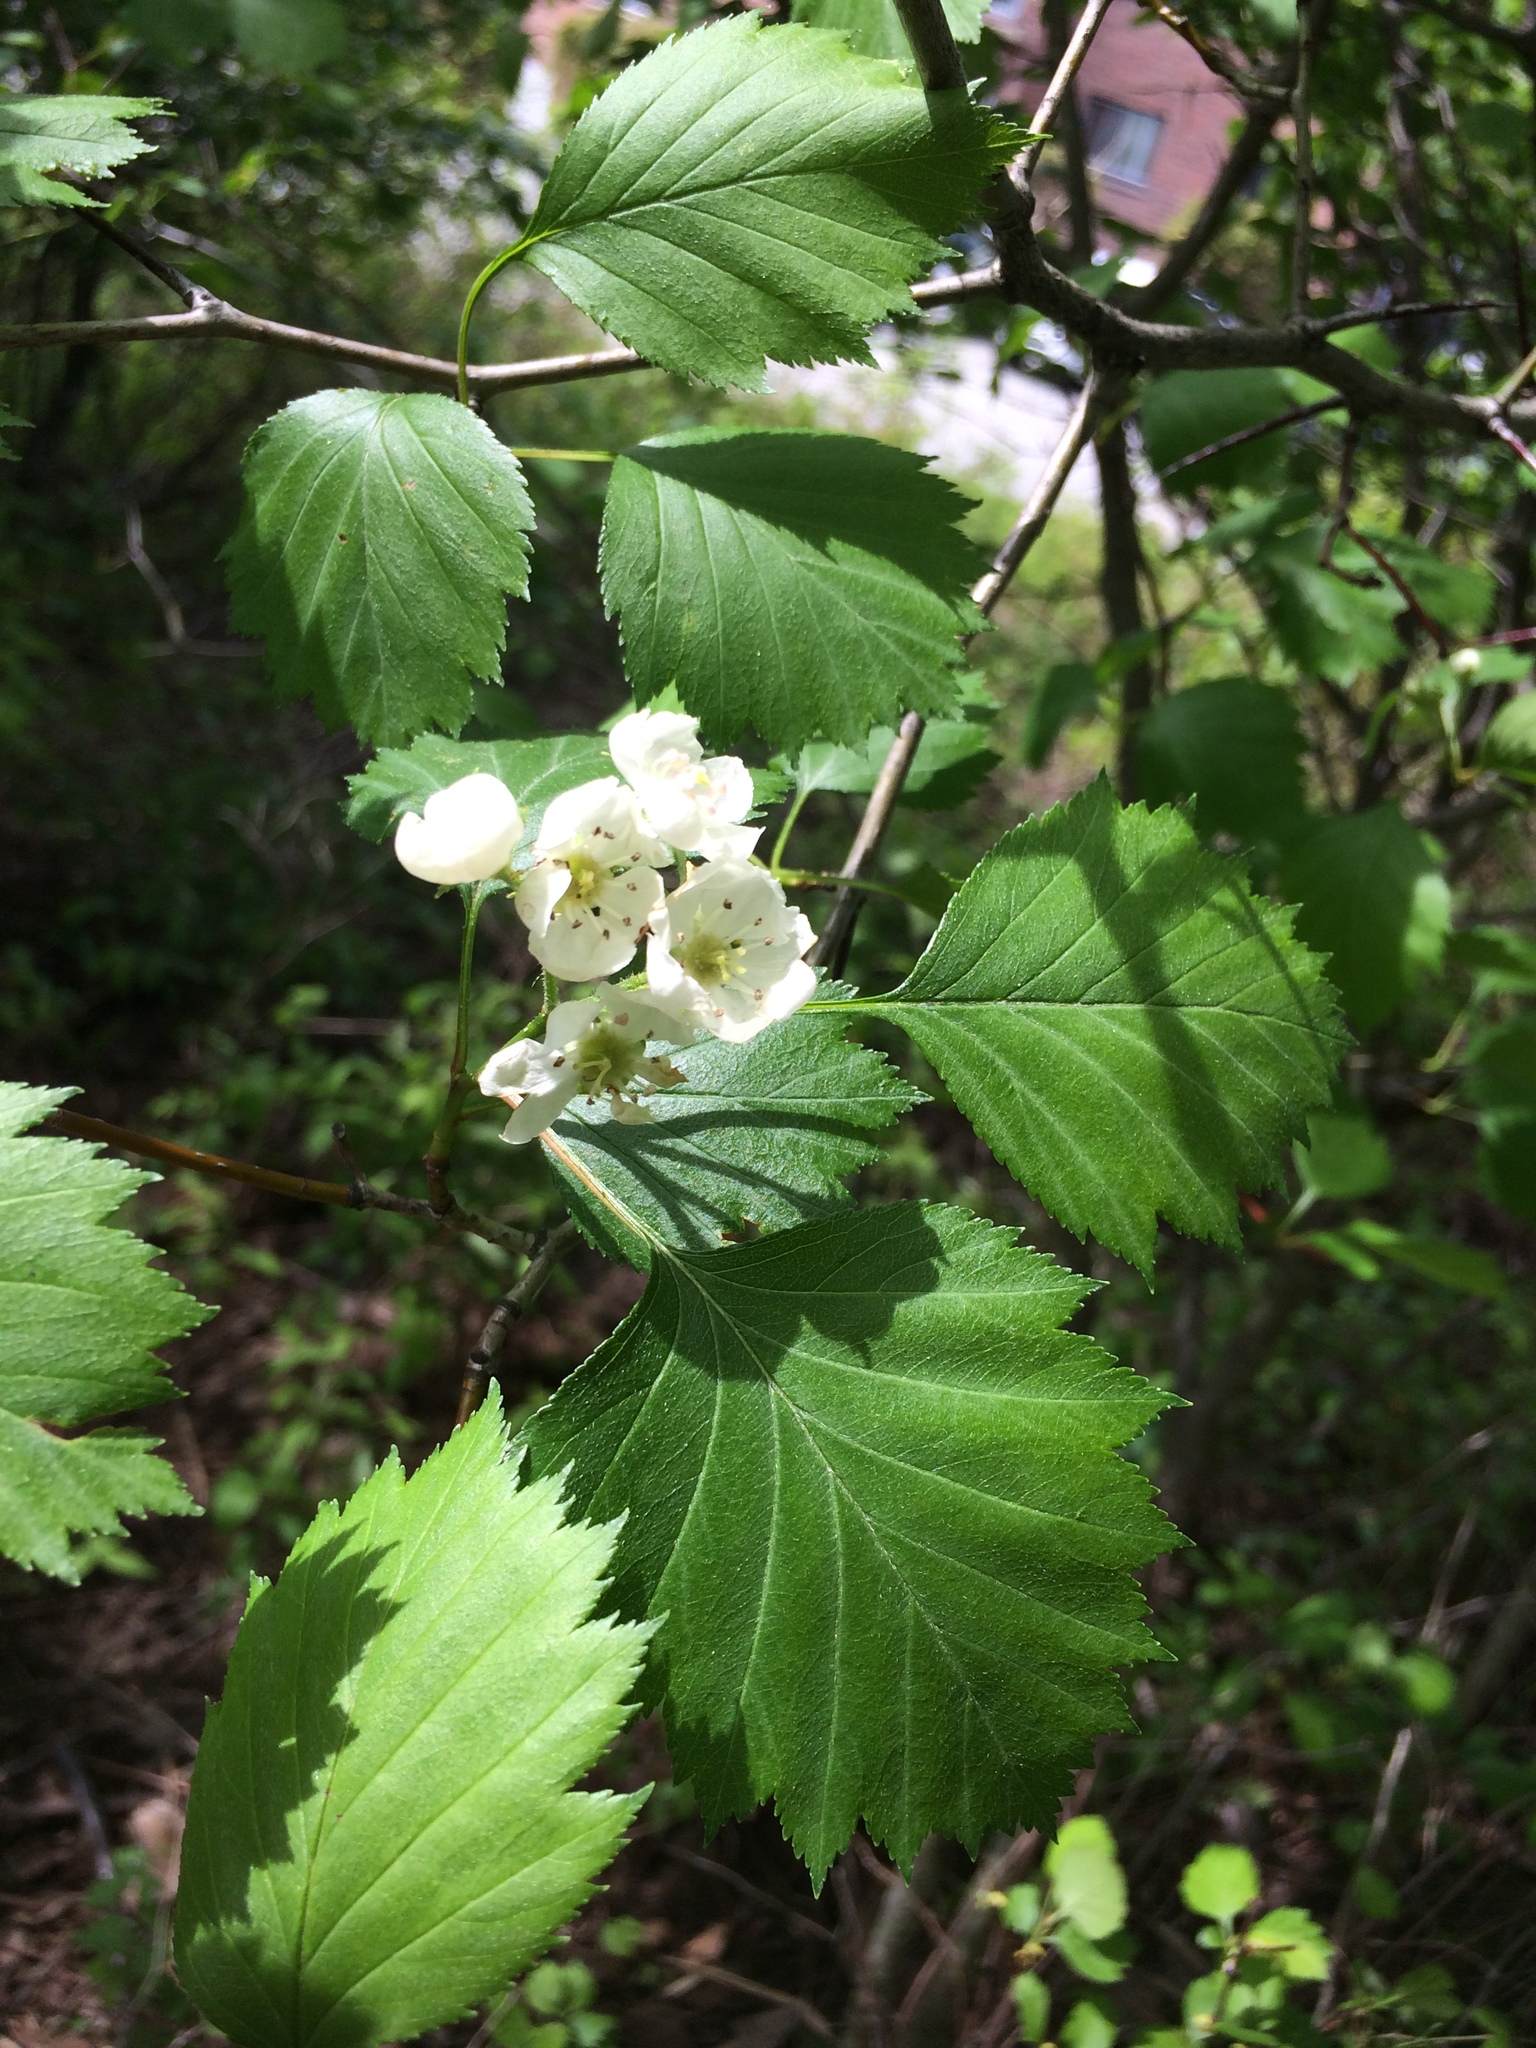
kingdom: Plantae
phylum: Tracheophyta
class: Magnoliopsida
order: Rosales
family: Rosaceae
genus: Crataegus
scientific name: Crataegus flabellata
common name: Bosc's hawthorn
